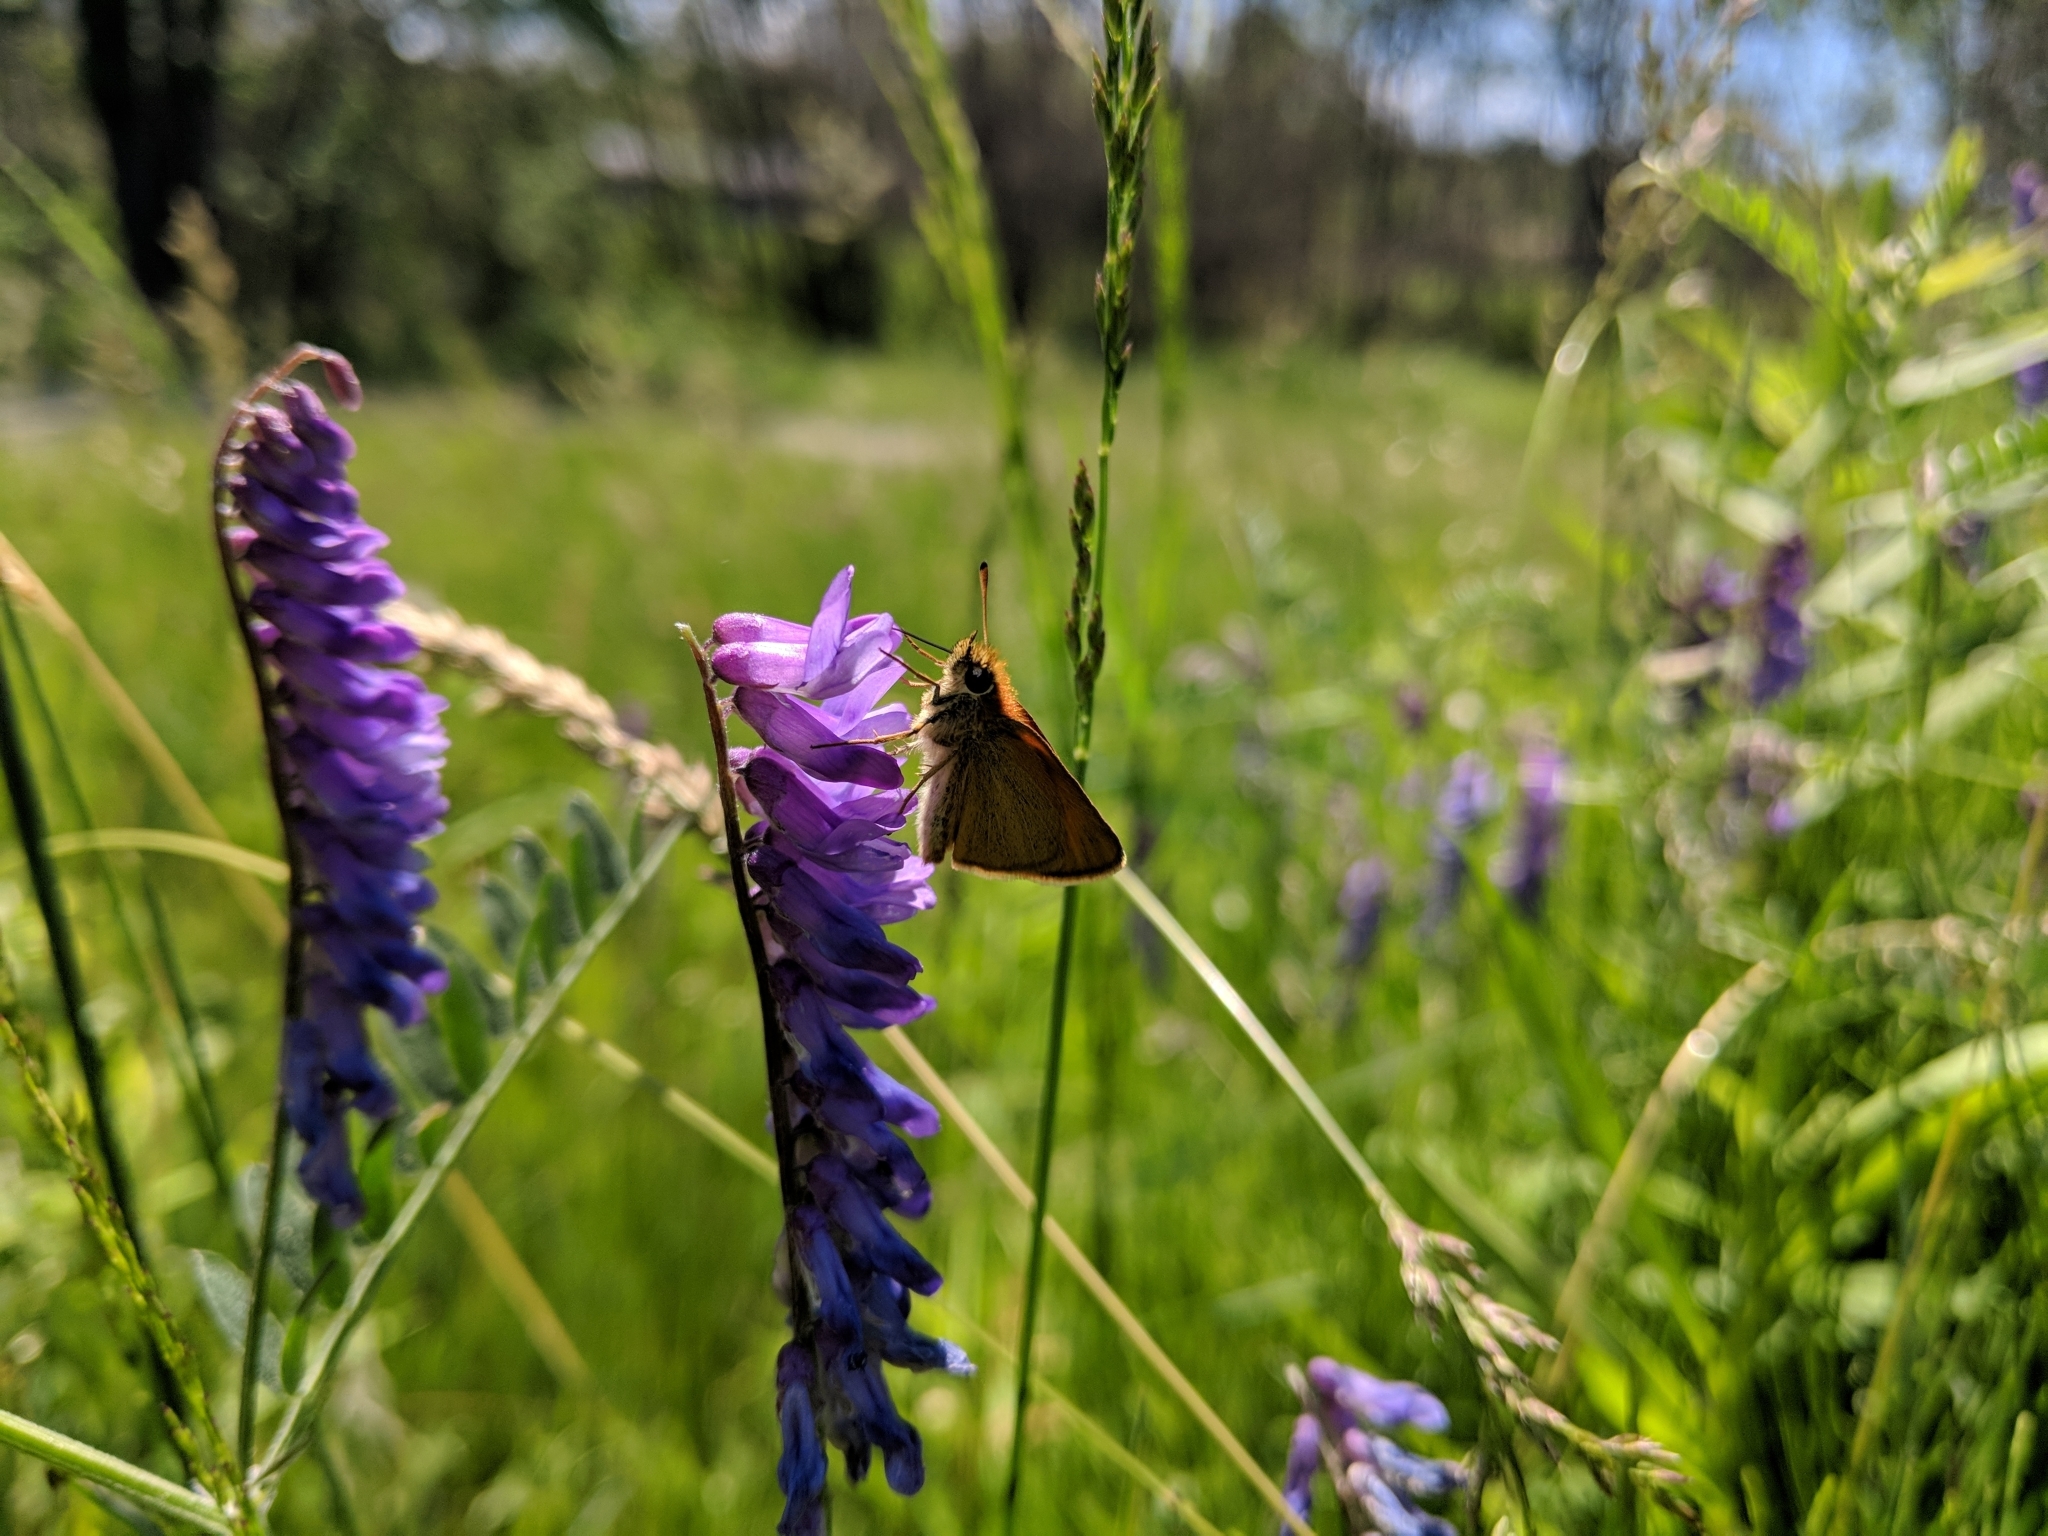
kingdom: Animalia
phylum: Arthropoda
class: Insecta
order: Lepidoptera
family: Hesperiidae
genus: Thymelicus
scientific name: Thymelicus lineola
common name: Essex skipper
